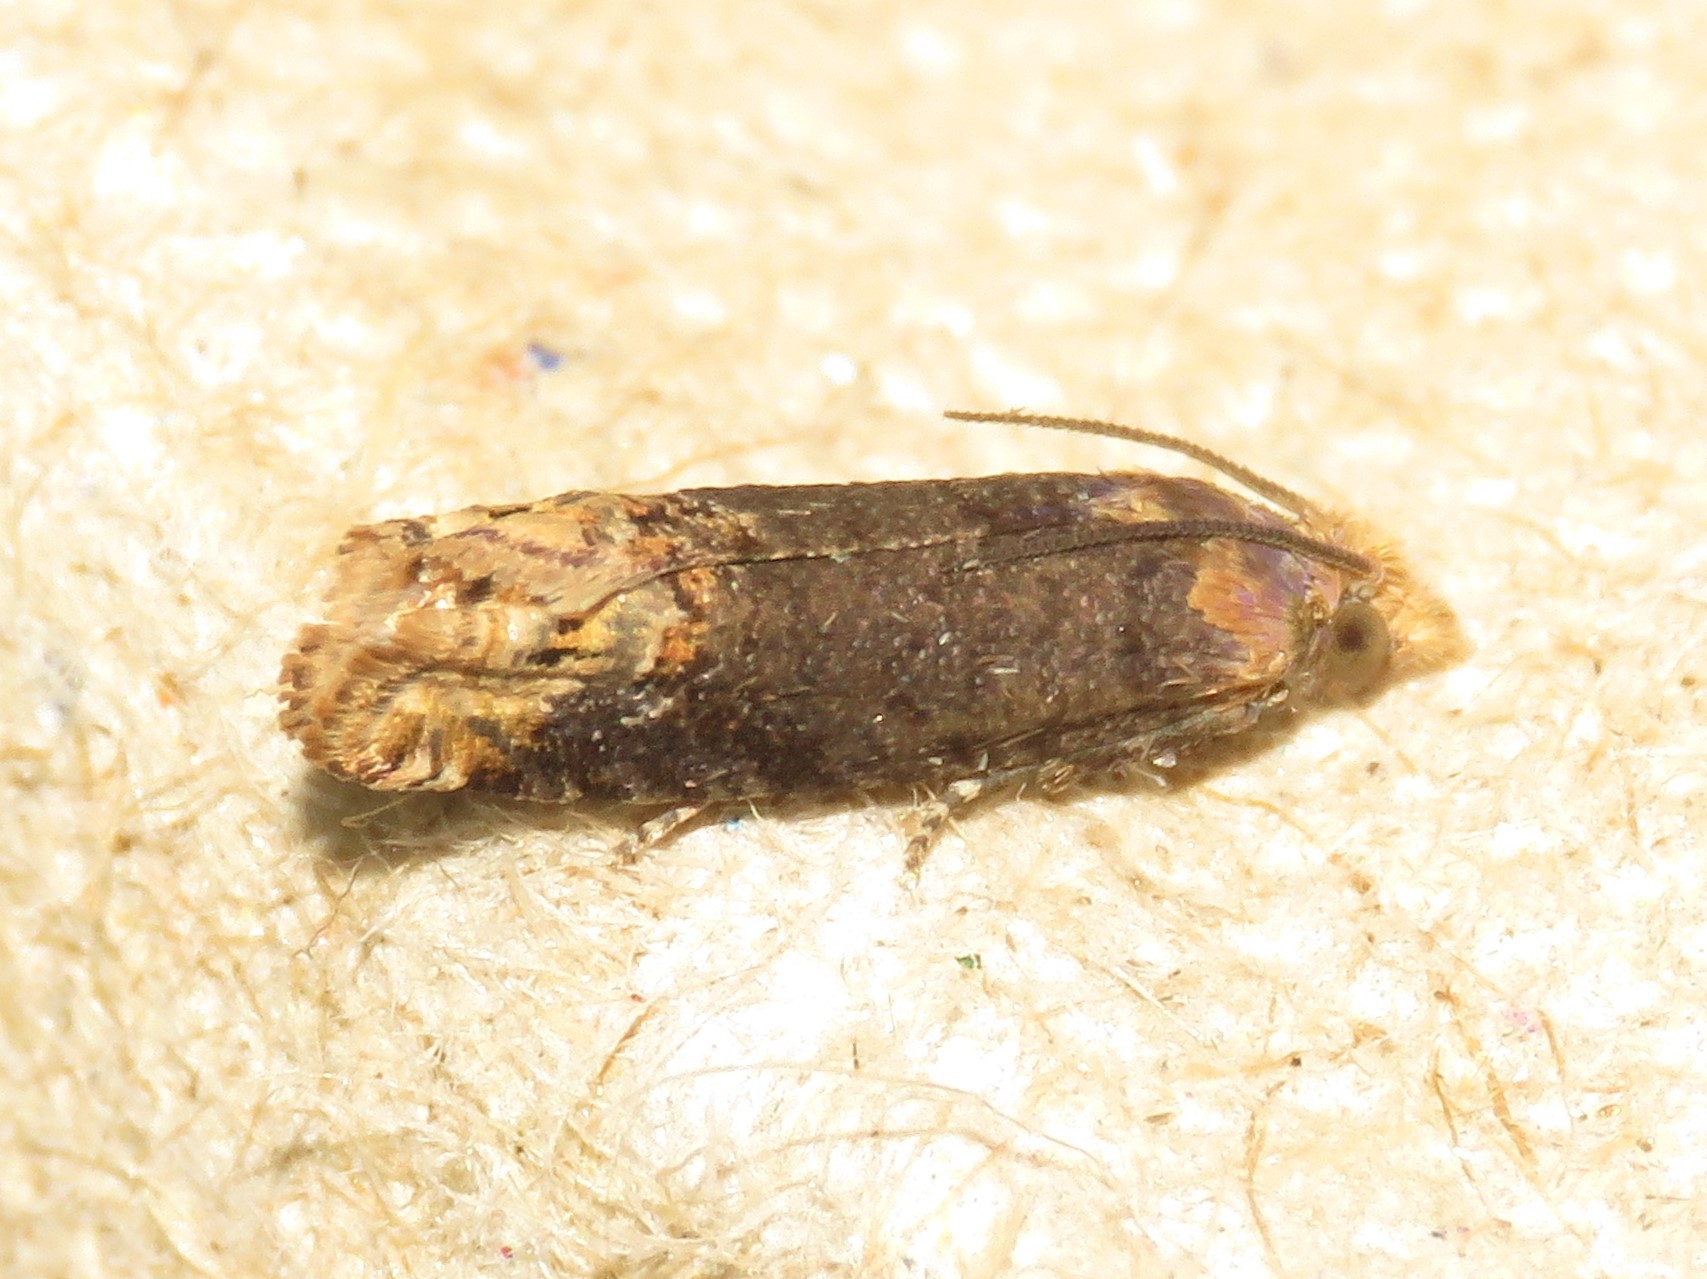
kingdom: Animalia
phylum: Arthropoda
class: Insecta
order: Lepidoptera
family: Tortricidae
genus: Eucosma
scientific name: Eucosma ochroterminana
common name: Buff-tipped eucosma moth
